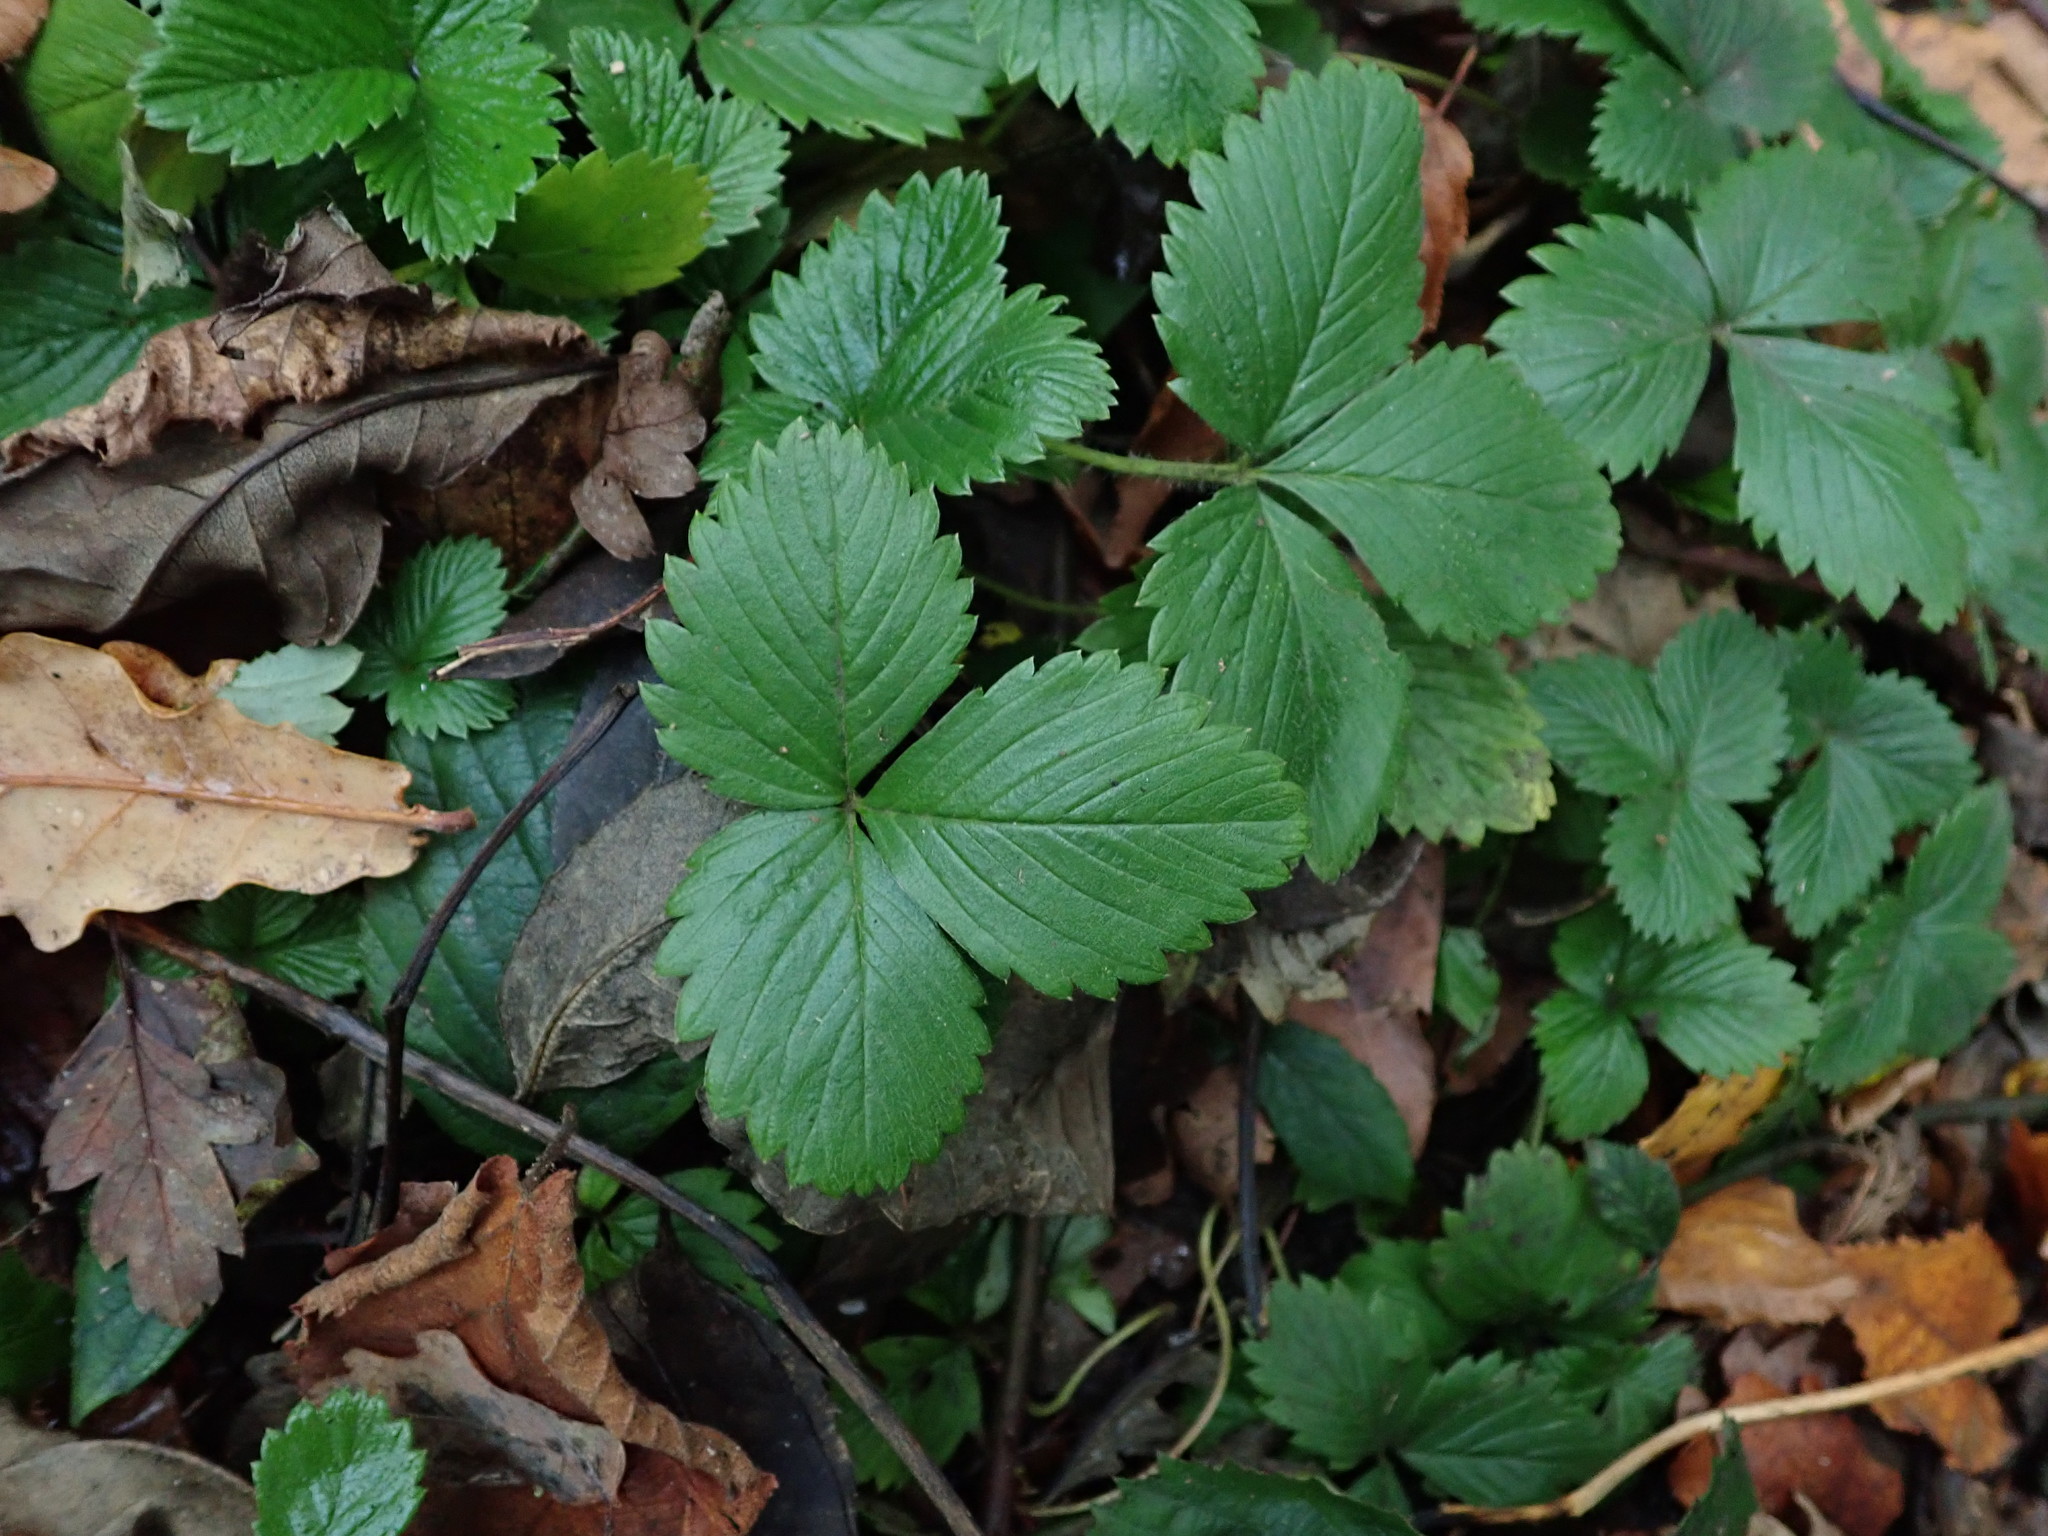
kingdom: Plantae
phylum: Tracheophyta
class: Magnoliopsida
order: Rosales
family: Rosaceae
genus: Fragaria
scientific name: Fragaria vesca
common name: Wild strawberry
